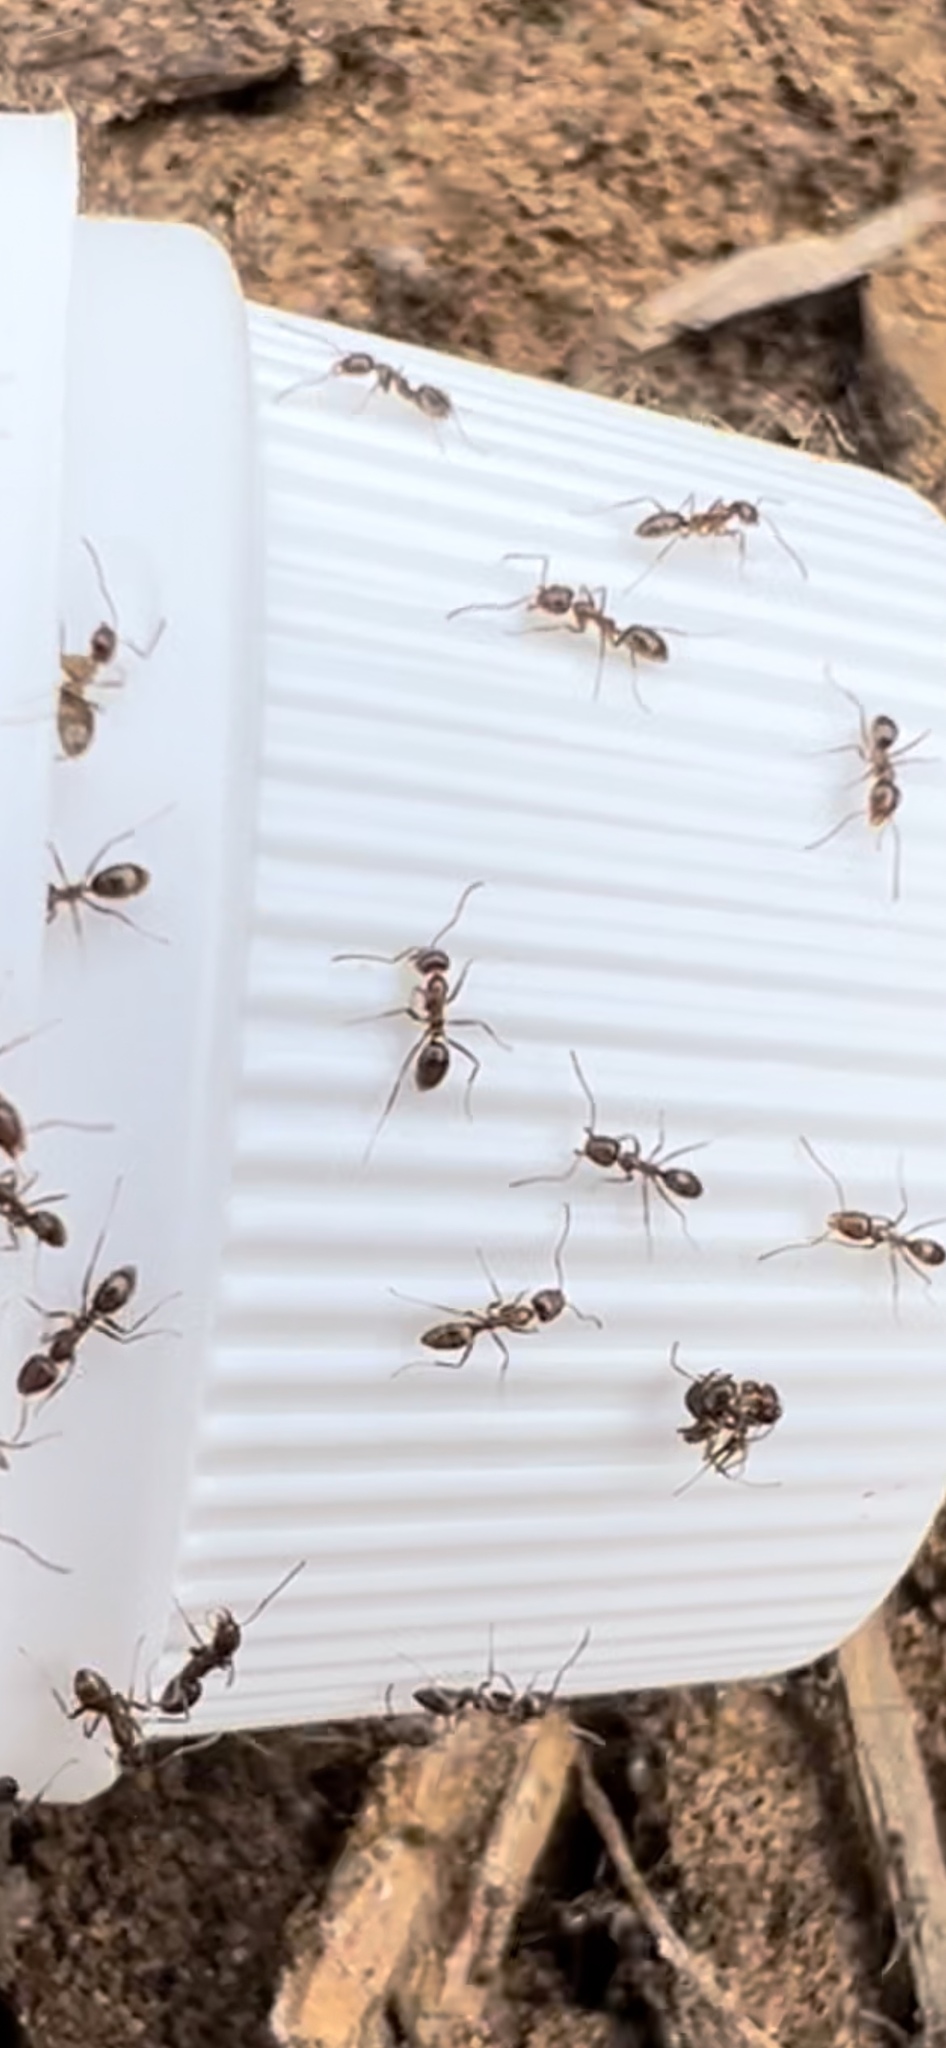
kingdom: Animalia
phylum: Arthropoda
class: Insecta
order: Hymenoptera
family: Formicidae
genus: Linepithema
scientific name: Linepithema humile
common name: Argentine ant
